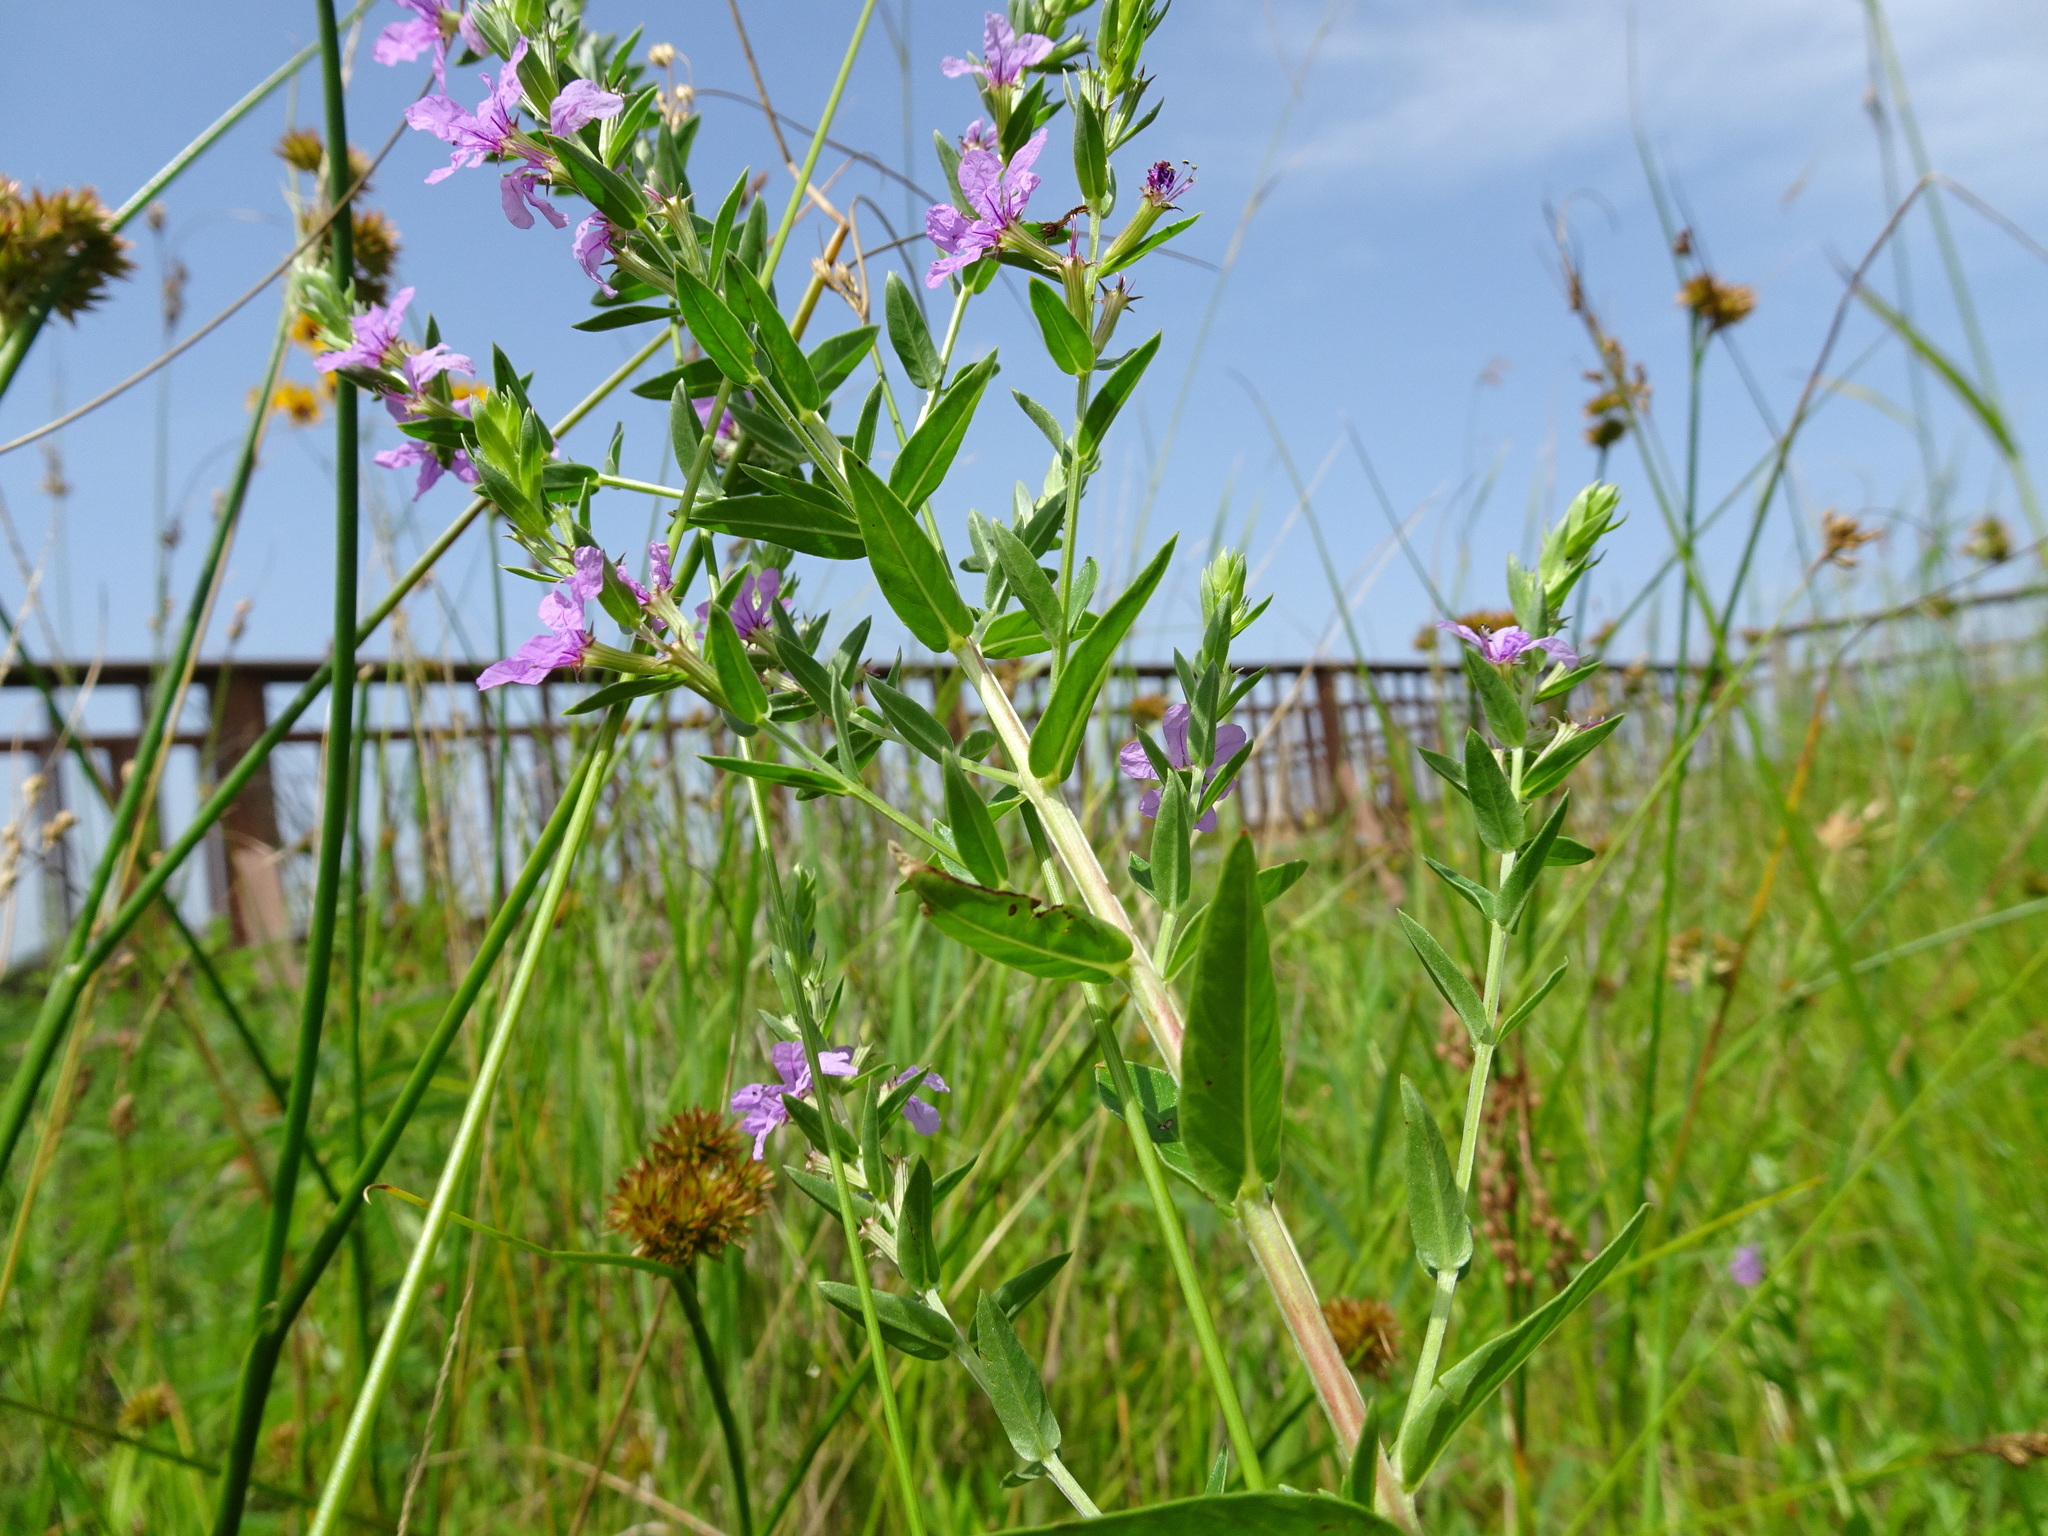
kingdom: Plantae
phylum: Tracheophyta
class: Magnoliopsida
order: Myrtales
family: Lythraceae
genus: Lythrum
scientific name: Lythrum alatum
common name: Winged loosestrife
